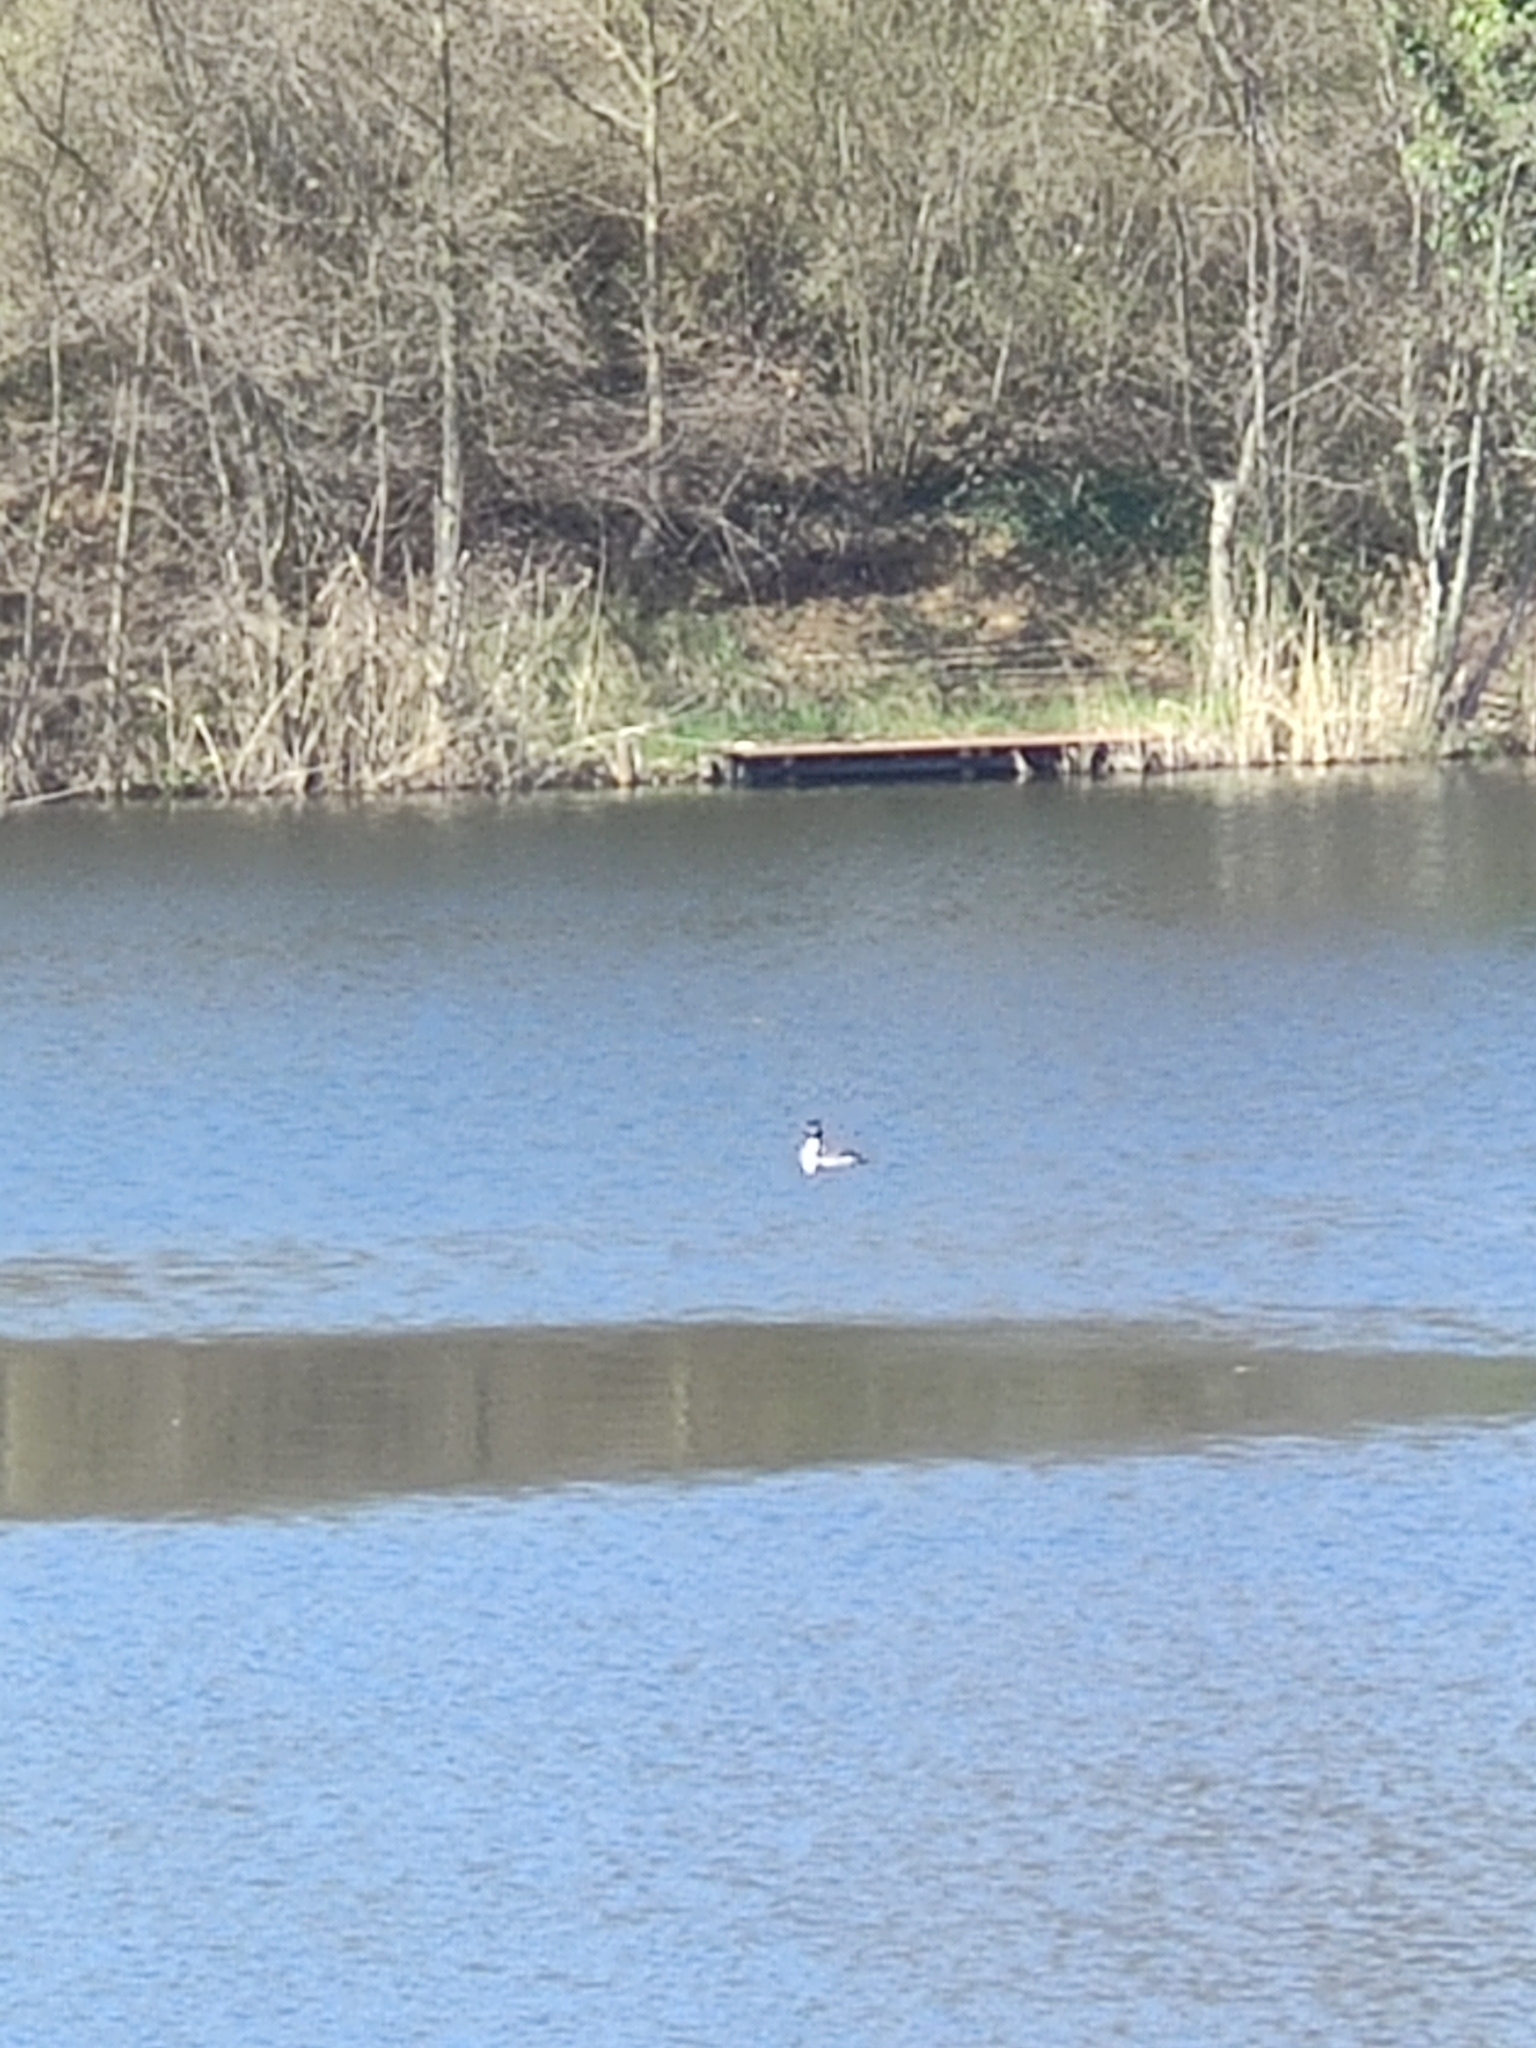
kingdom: Animalia
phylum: Chordata
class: Aves
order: Podicipediformes
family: Podicipedidae
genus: Podiceps
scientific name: Podiceps cristatus
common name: Great crested grebe
